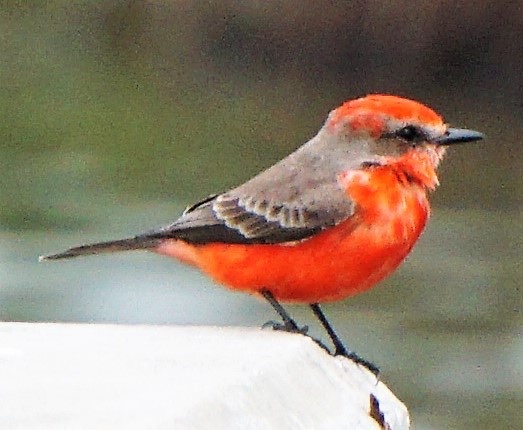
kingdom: Animalia
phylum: Chordata
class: Aves
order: Passeriformes
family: Tyrannidae
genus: Pyrocephalus
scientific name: Pyrocephalus rubinus
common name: Vermilion flycatcher
